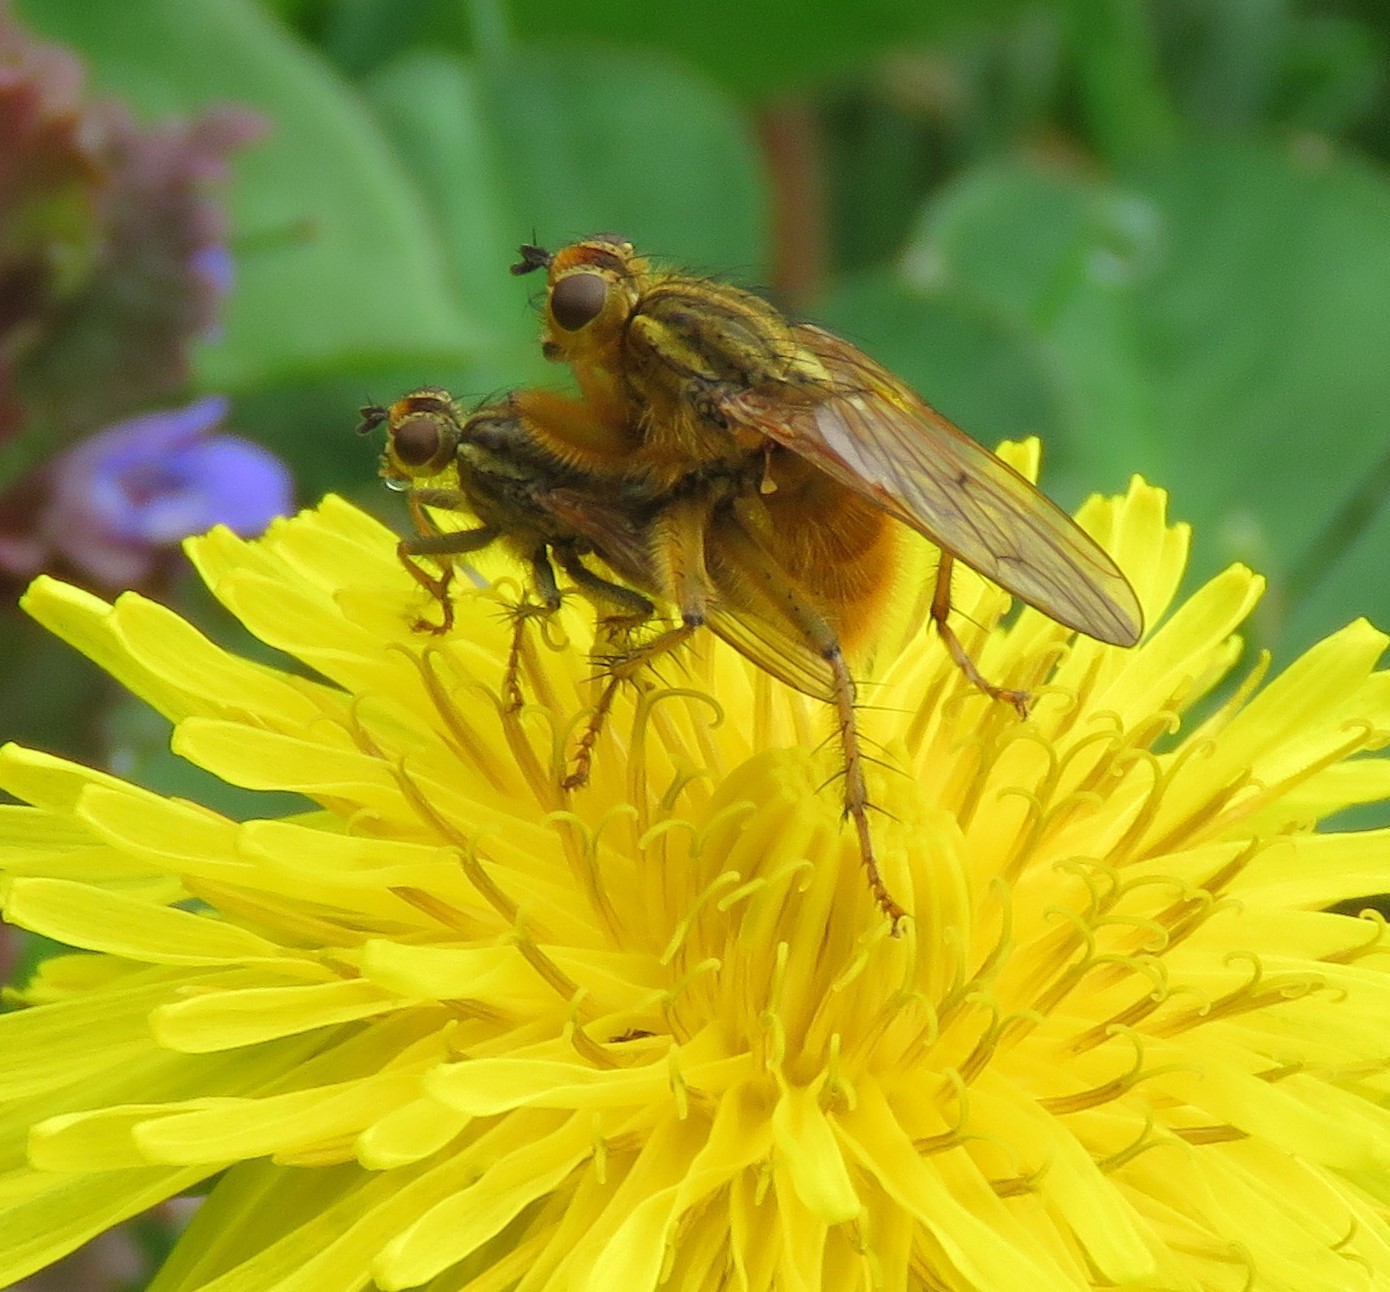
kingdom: Animalia
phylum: Arthropoda
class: Insecta
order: Diptera
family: Scathophagidae
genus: Scathophaga
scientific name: Scathophaga stercoraria
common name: Yellow dung fly
